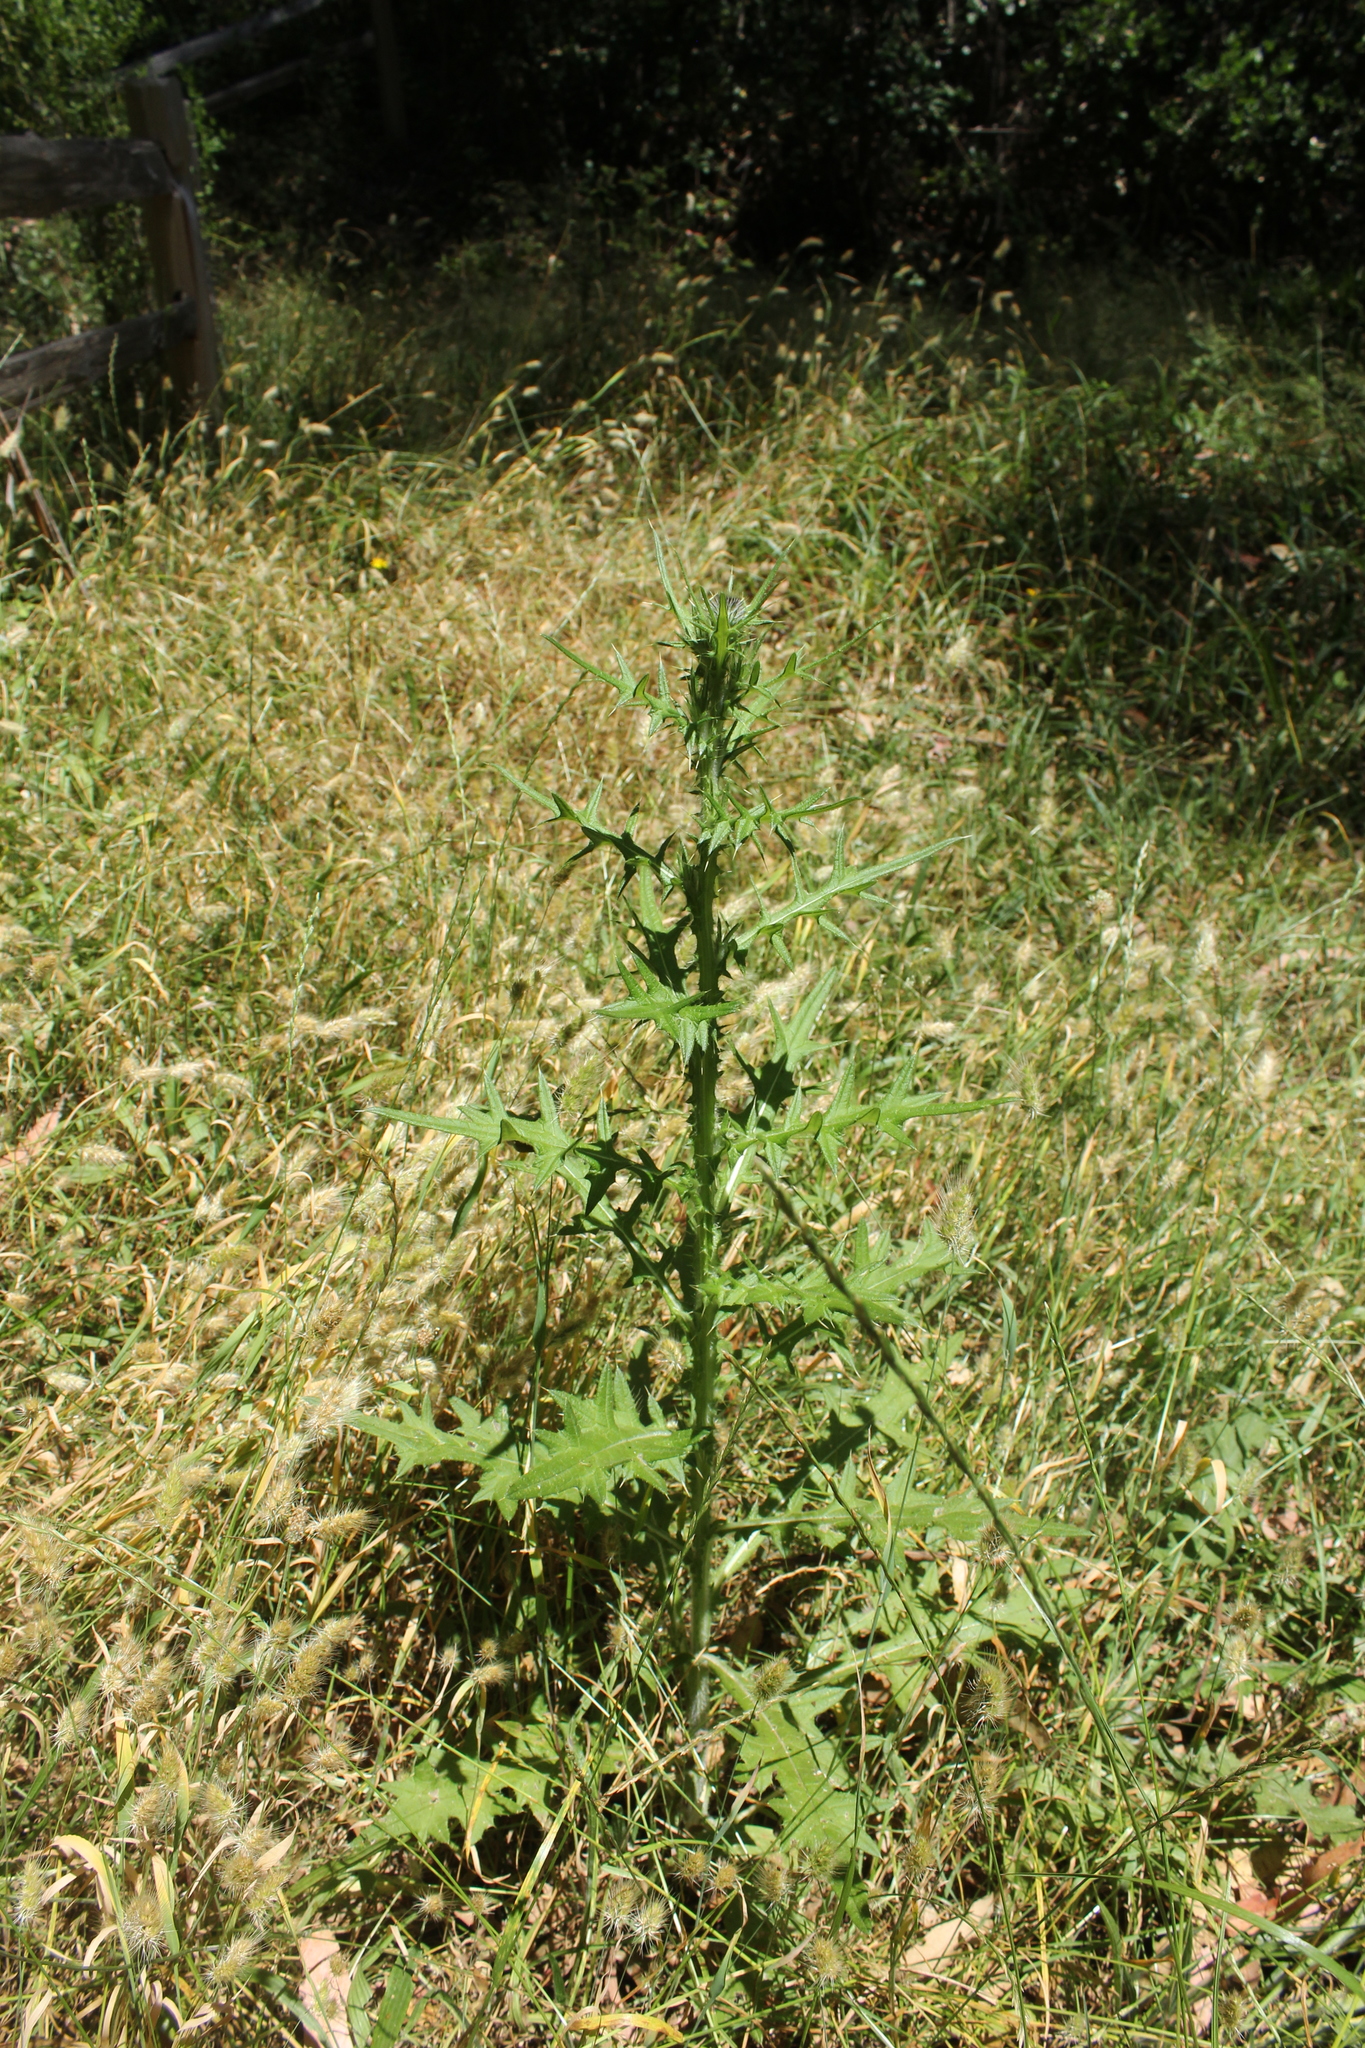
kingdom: Plantae
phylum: Tracheophyta
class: Magnoliopsida
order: Asterales
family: Asteraceae
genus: Cirsium
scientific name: Cirsium vulgare
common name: Bull thistle
